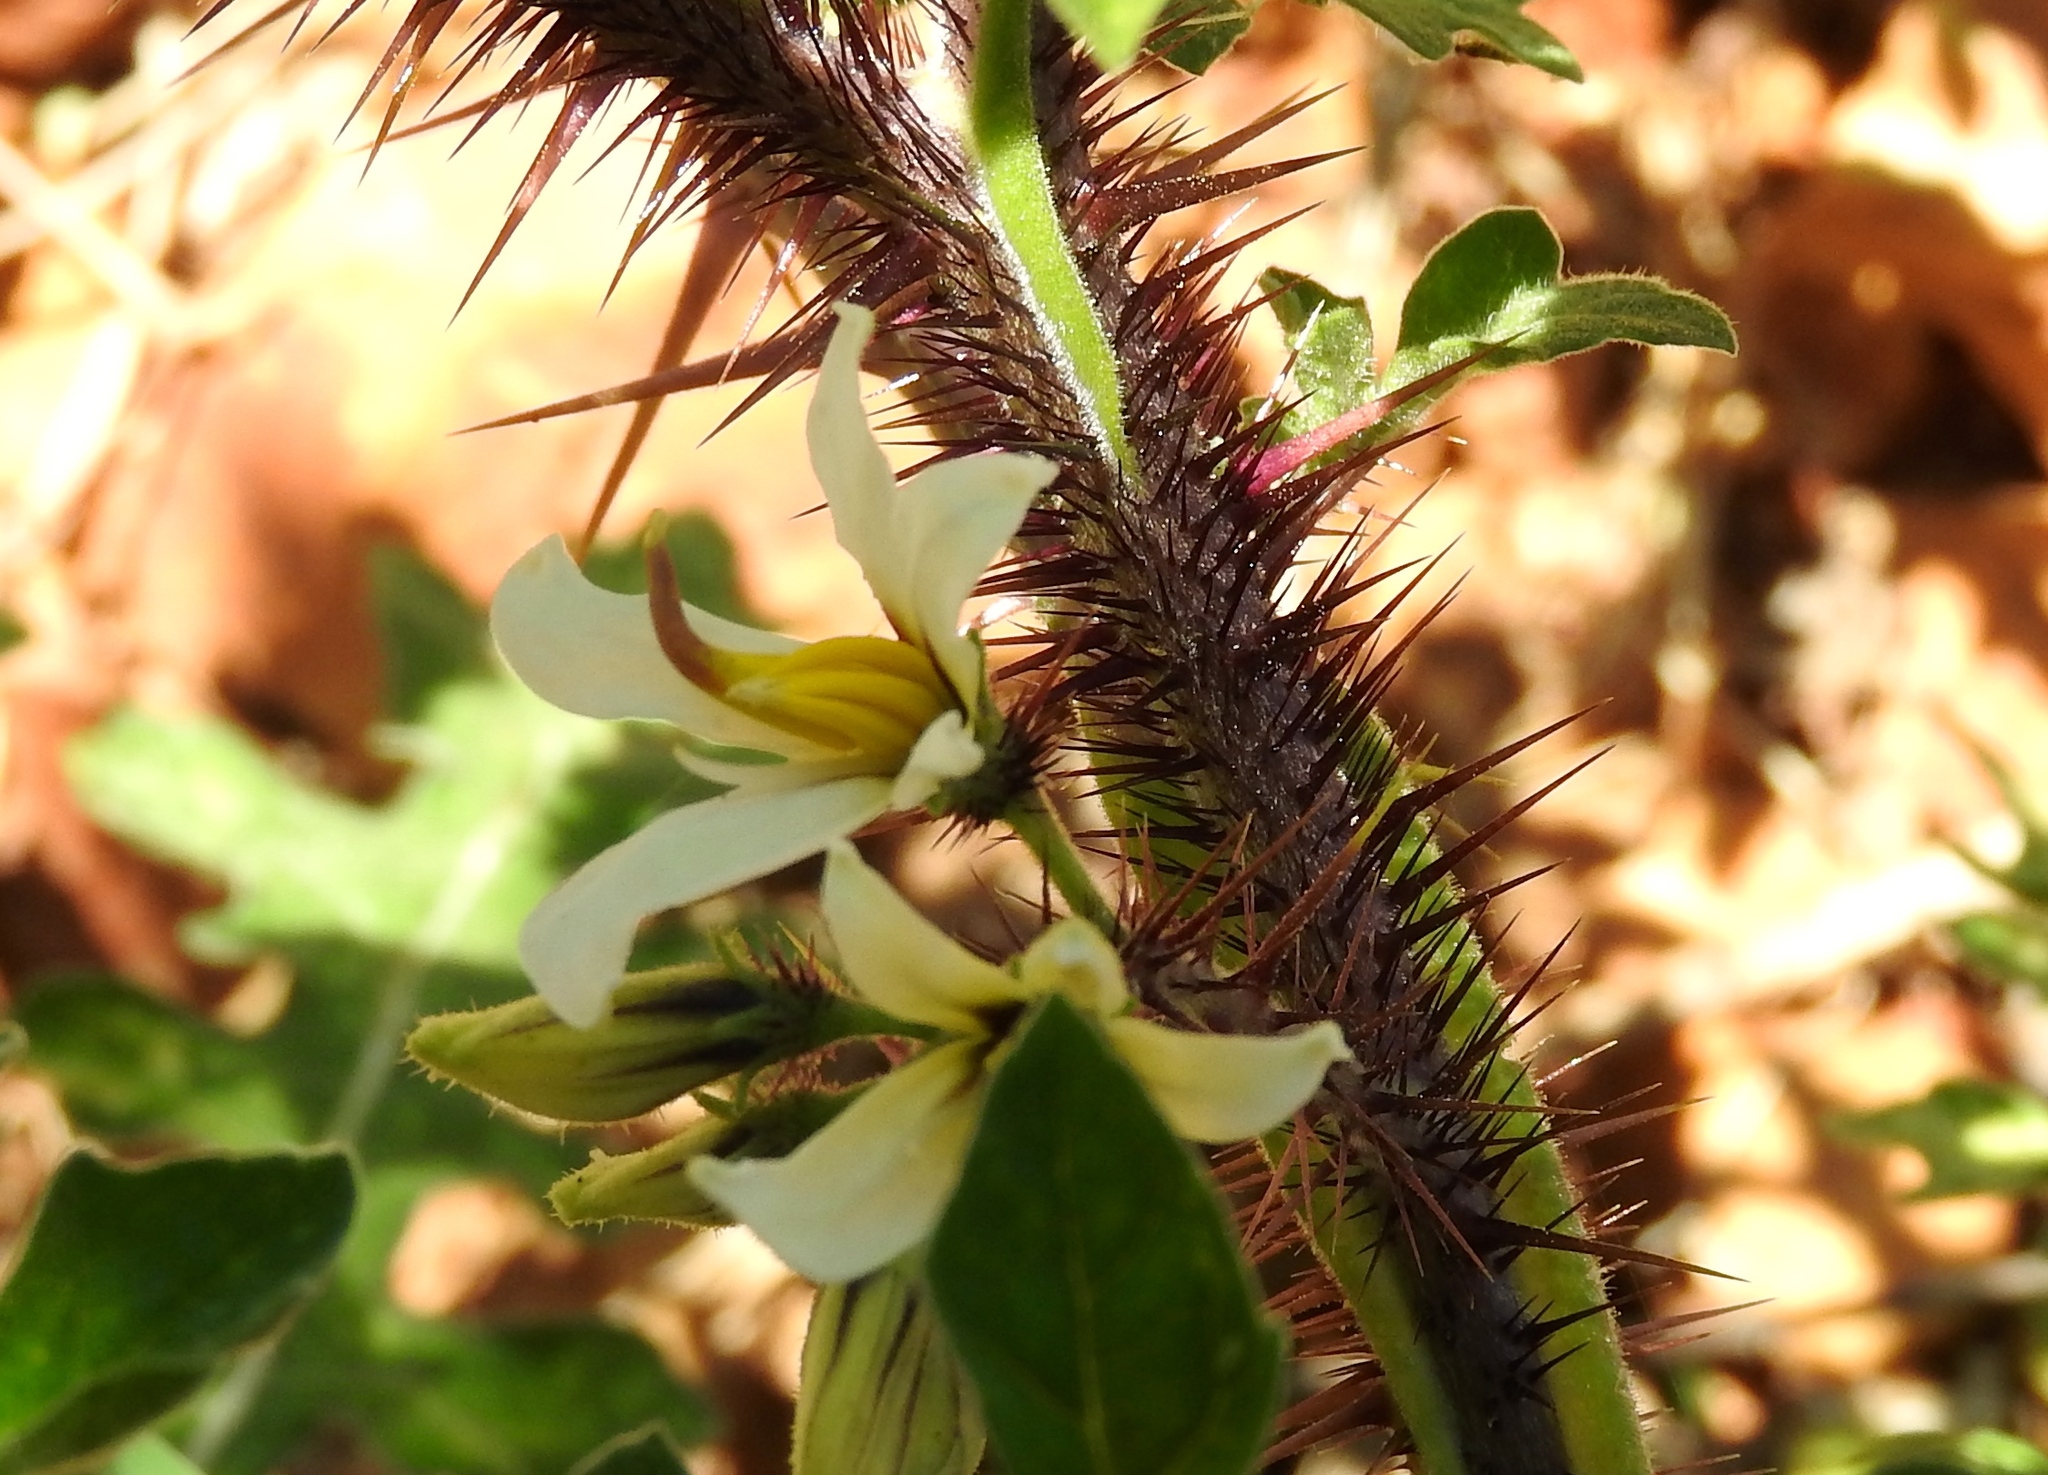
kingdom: Plantae
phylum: Tracheophyta
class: Magnoliopsida
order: Solanales
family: Solanaceae
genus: Solanum
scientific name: Solanum grayi
